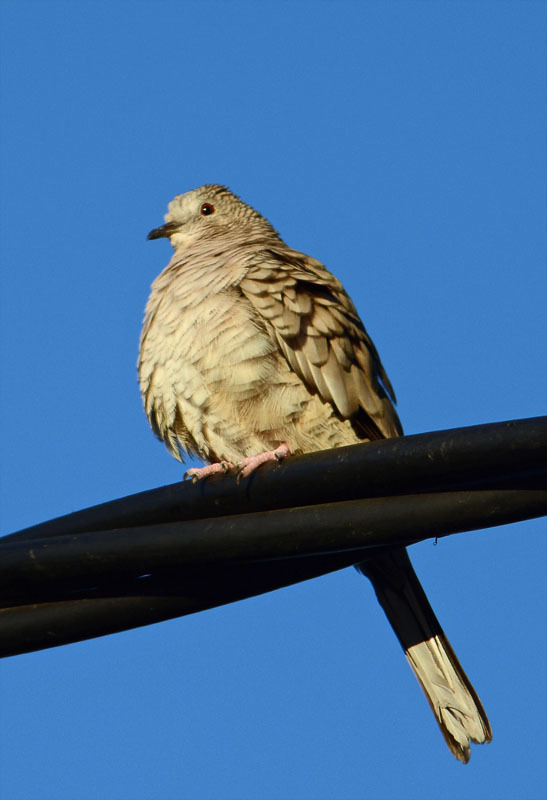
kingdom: Animalia
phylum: Chordata
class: Aves
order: Columbiformes
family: Columbidae
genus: Columbina
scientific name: Columbina inca
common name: Inca dove
